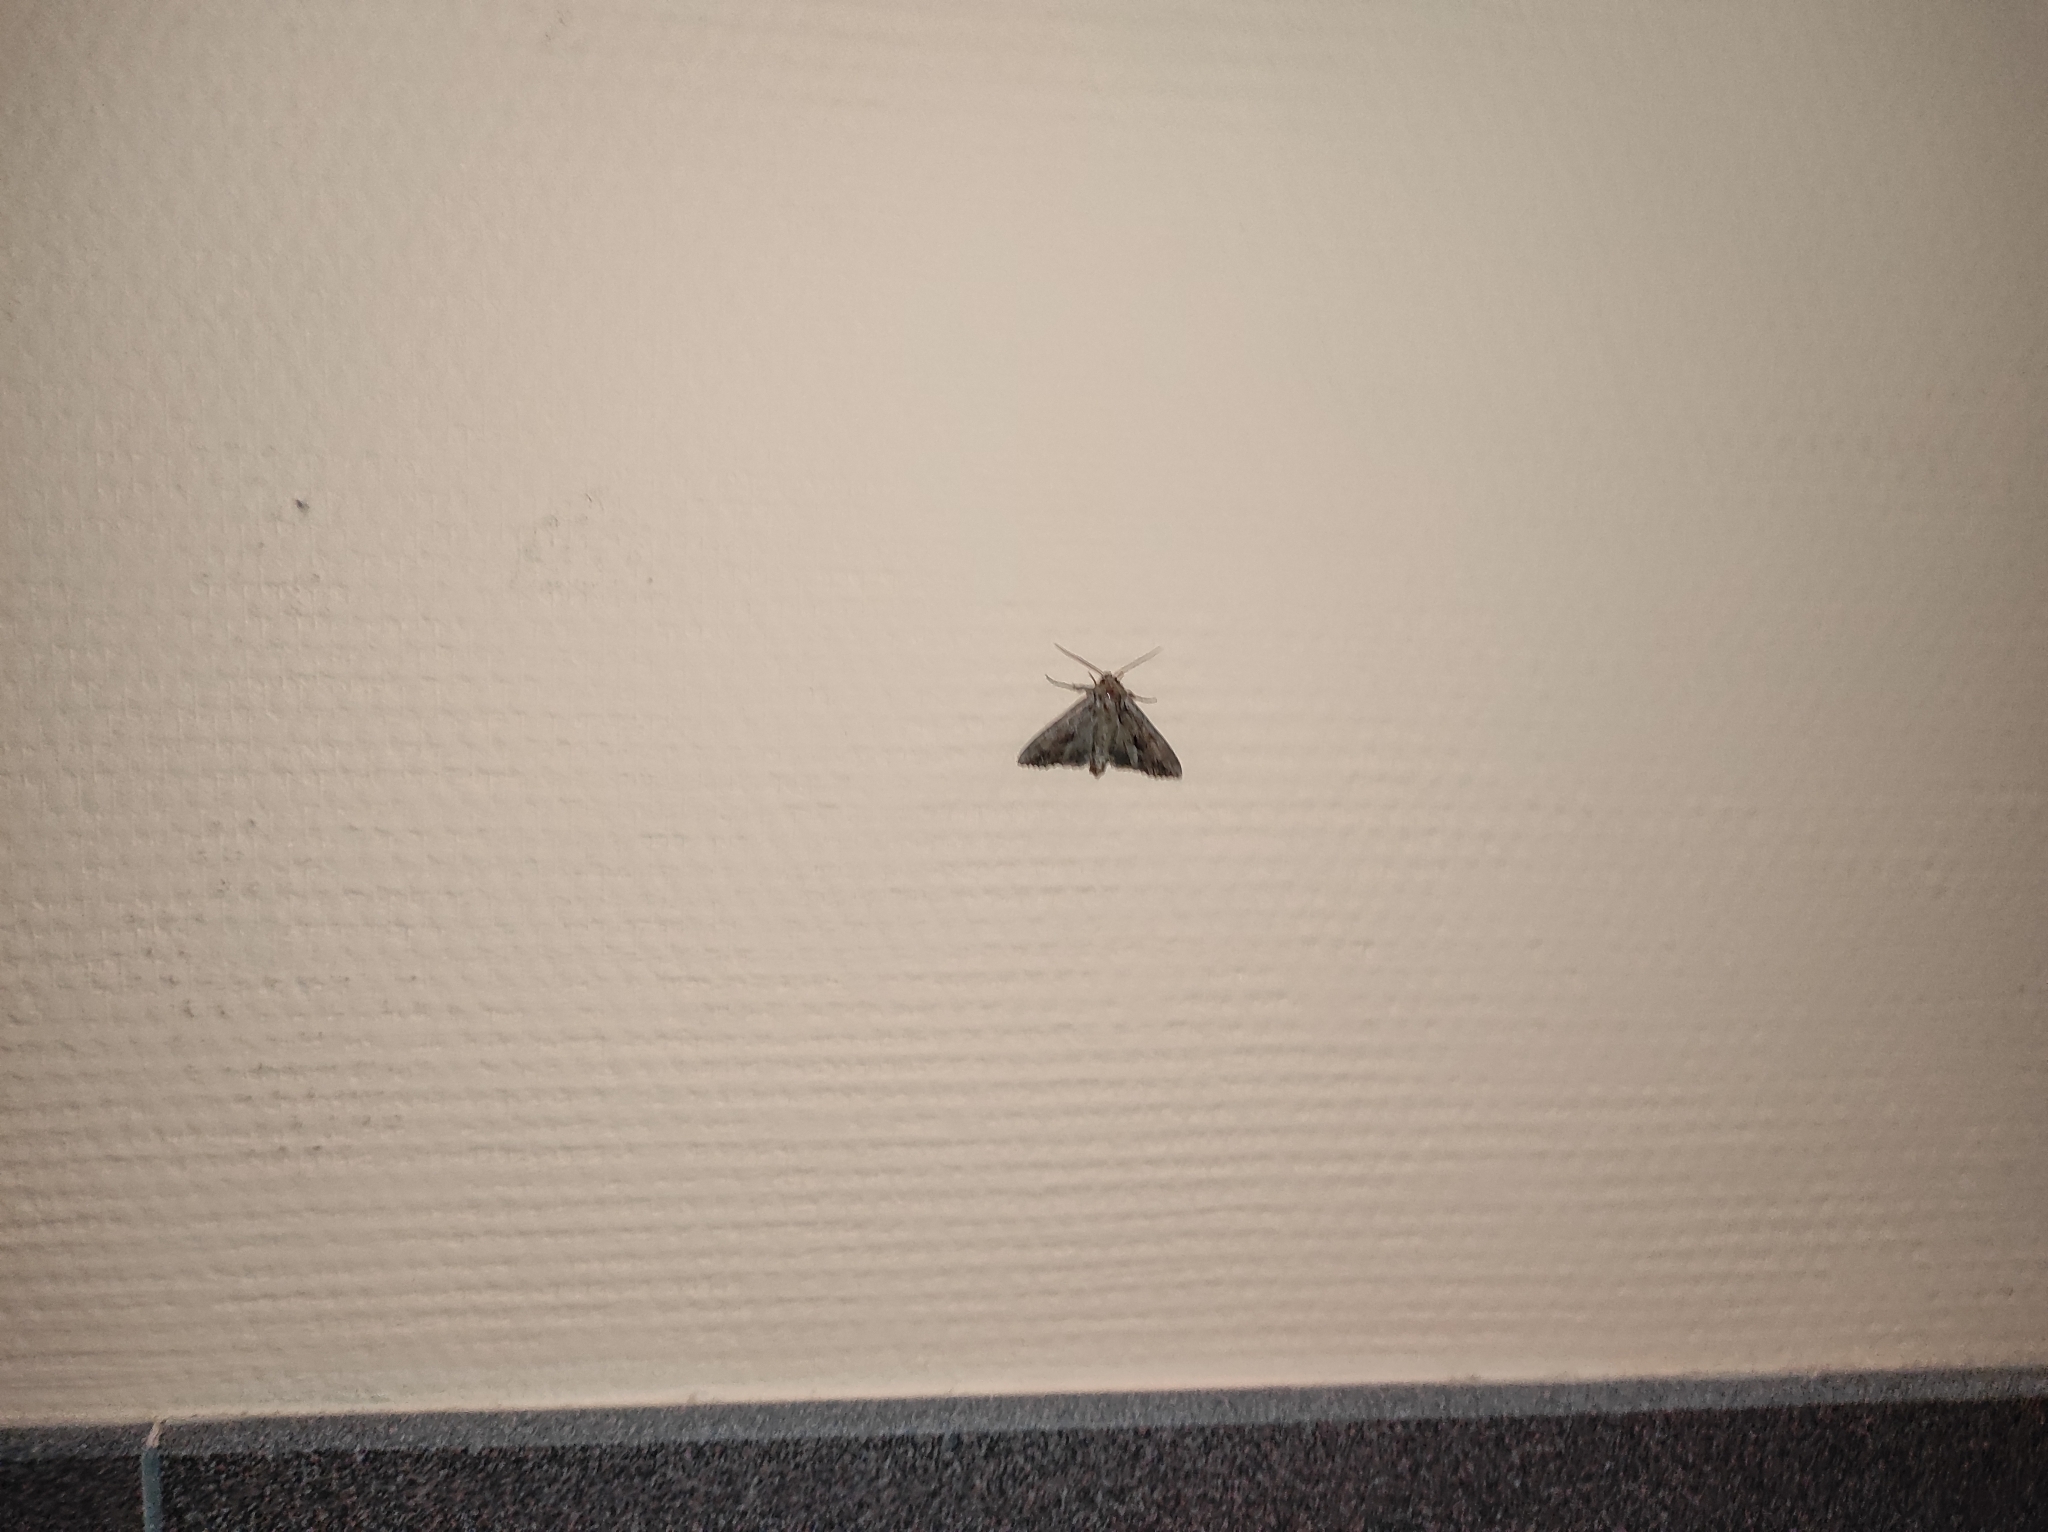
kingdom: Animalia
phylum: Arthropoda
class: Insecta
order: Lepidoptera
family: Noctuidae
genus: Apamea
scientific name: Apamea monoglypha
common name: Dark arches
